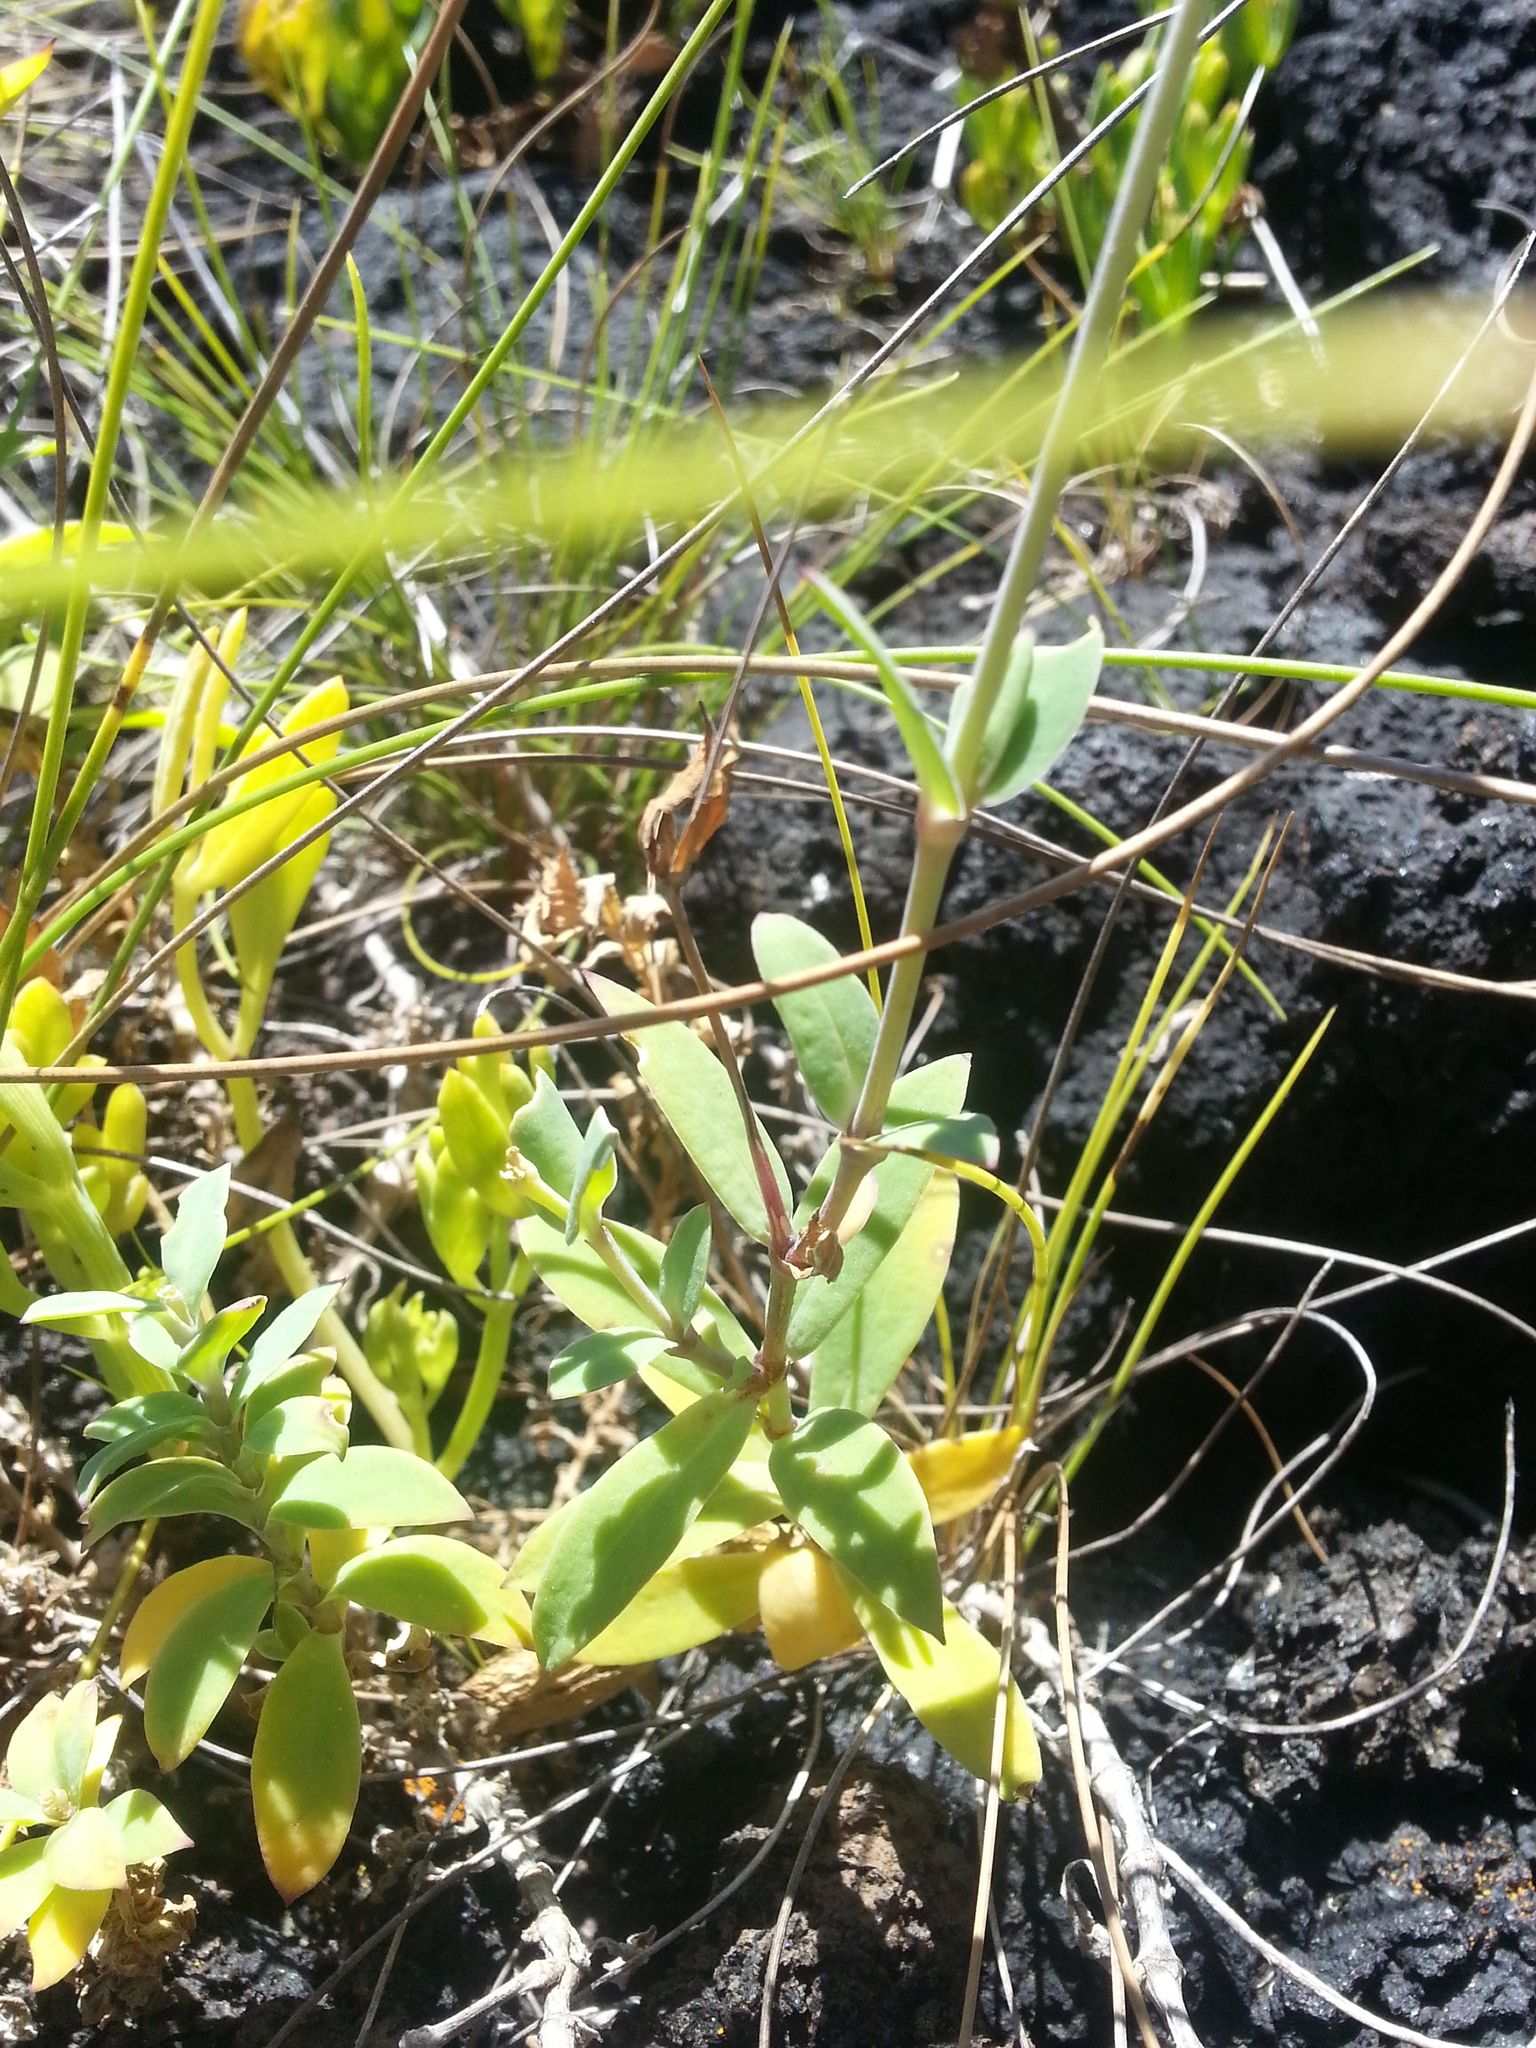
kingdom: Plantae
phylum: Tracheophyta
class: Magnoliopsida
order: Caryophyllales
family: Caryophyllaceae
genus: Silene
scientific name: Silene uniflora
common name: Sea campion
